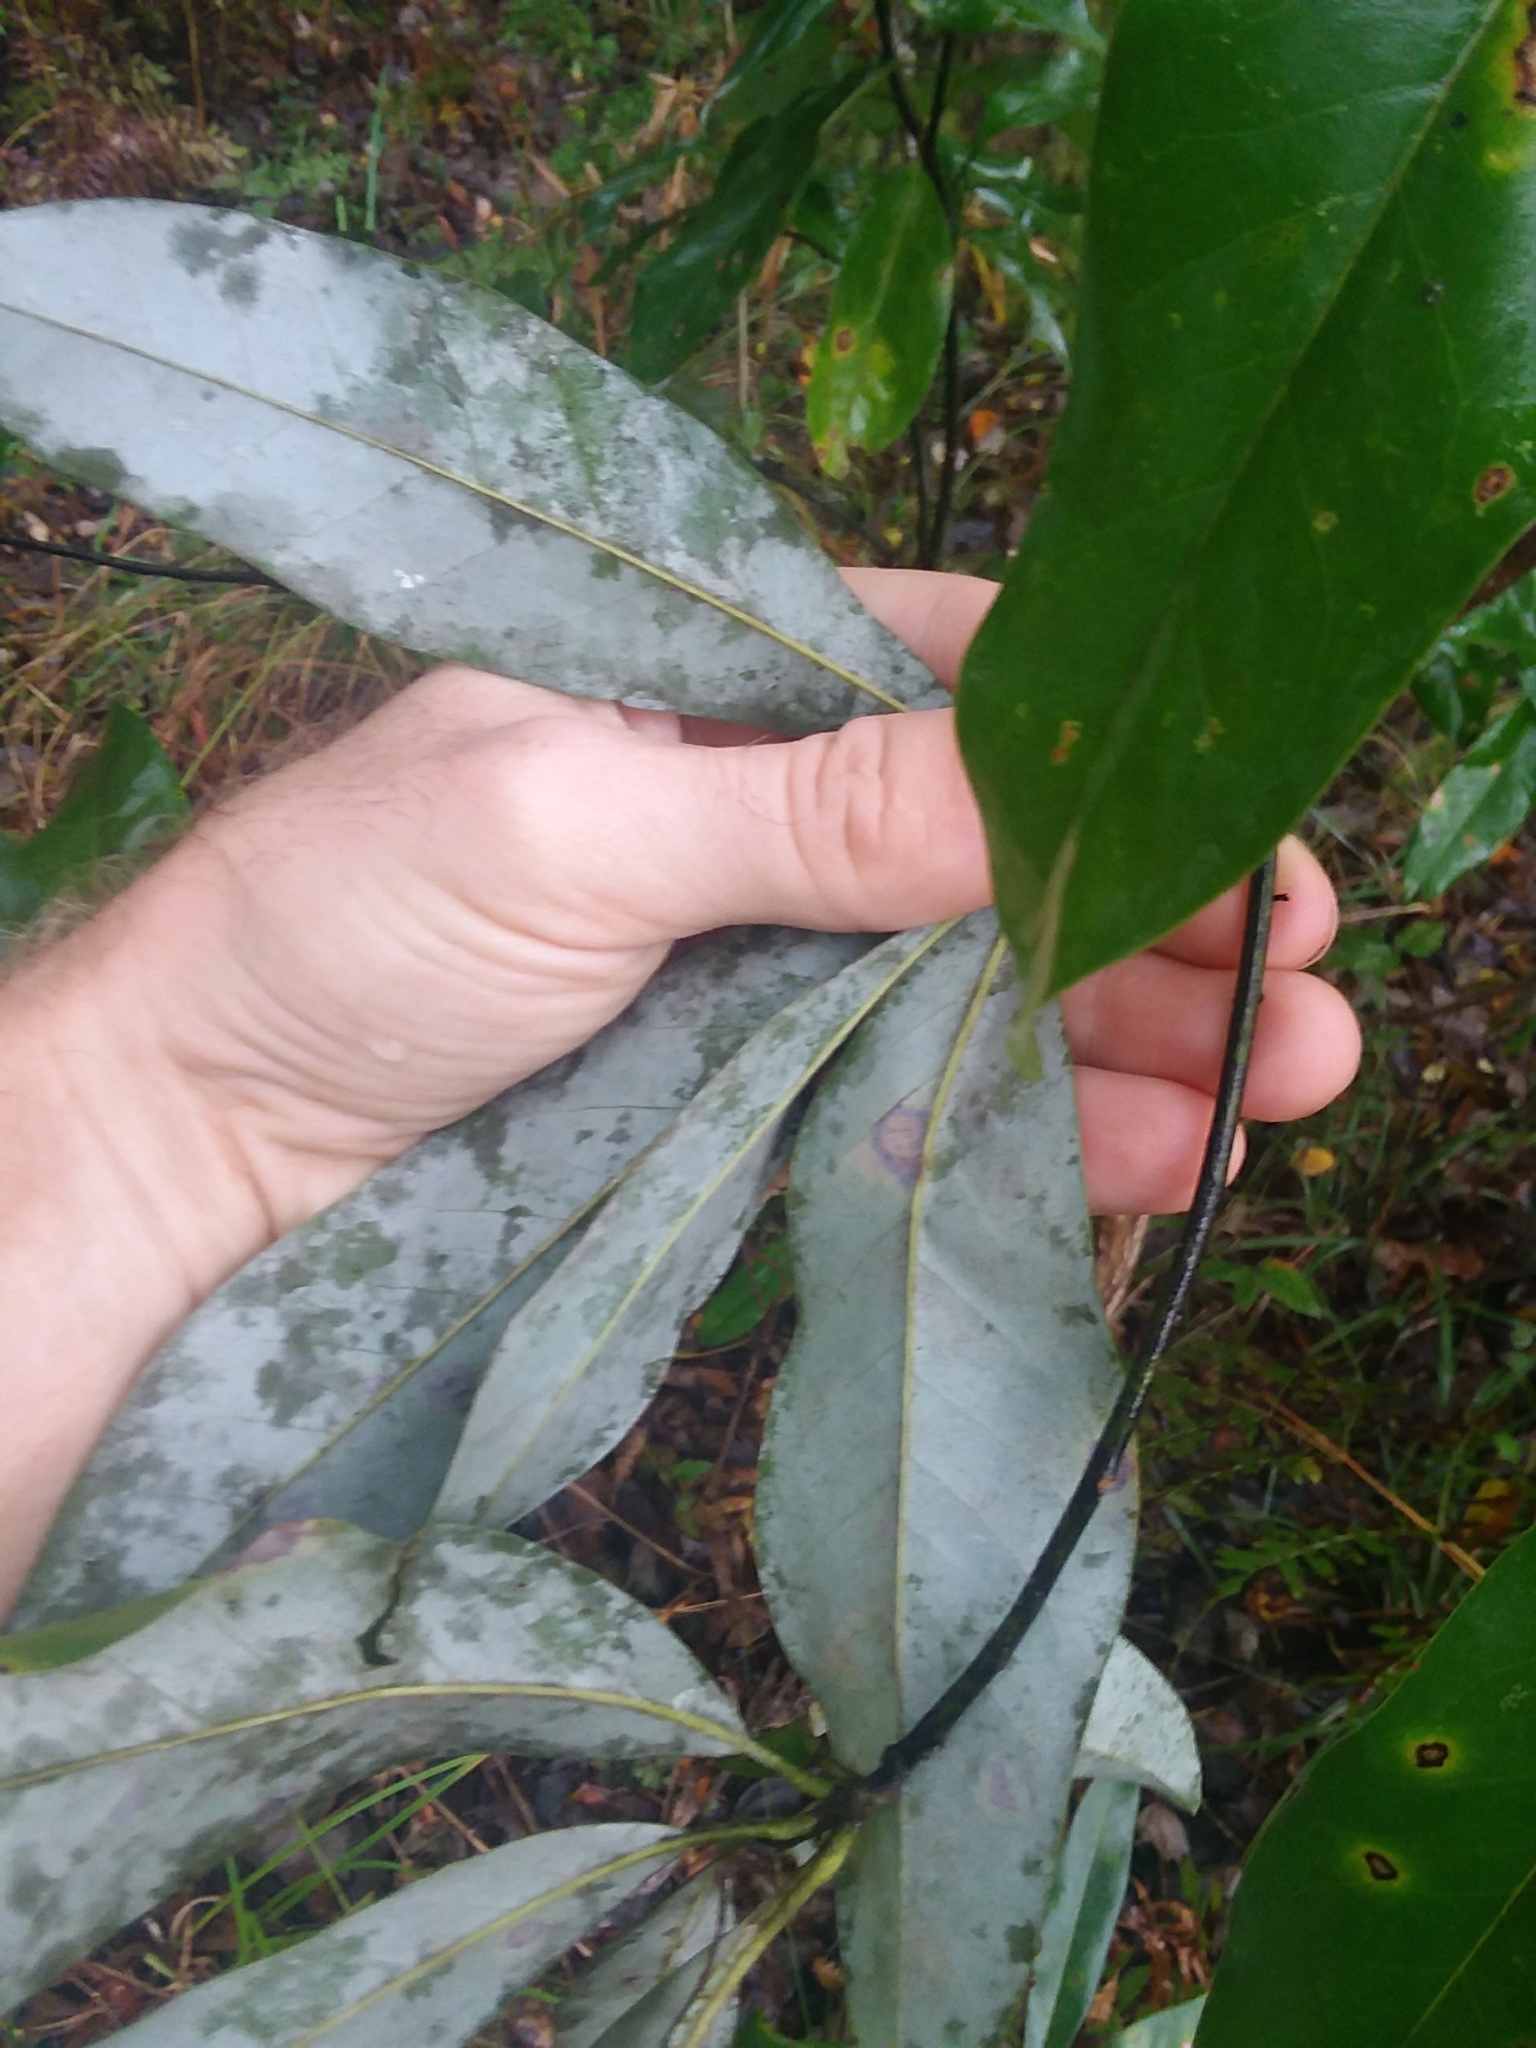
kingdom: Plantae
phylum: Tracheophyta
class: Magnoliopsida
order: Magnoliales
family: Magnoliaceae
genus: Magnolia
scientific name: Magnolia virginiana
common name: Swamp bay
